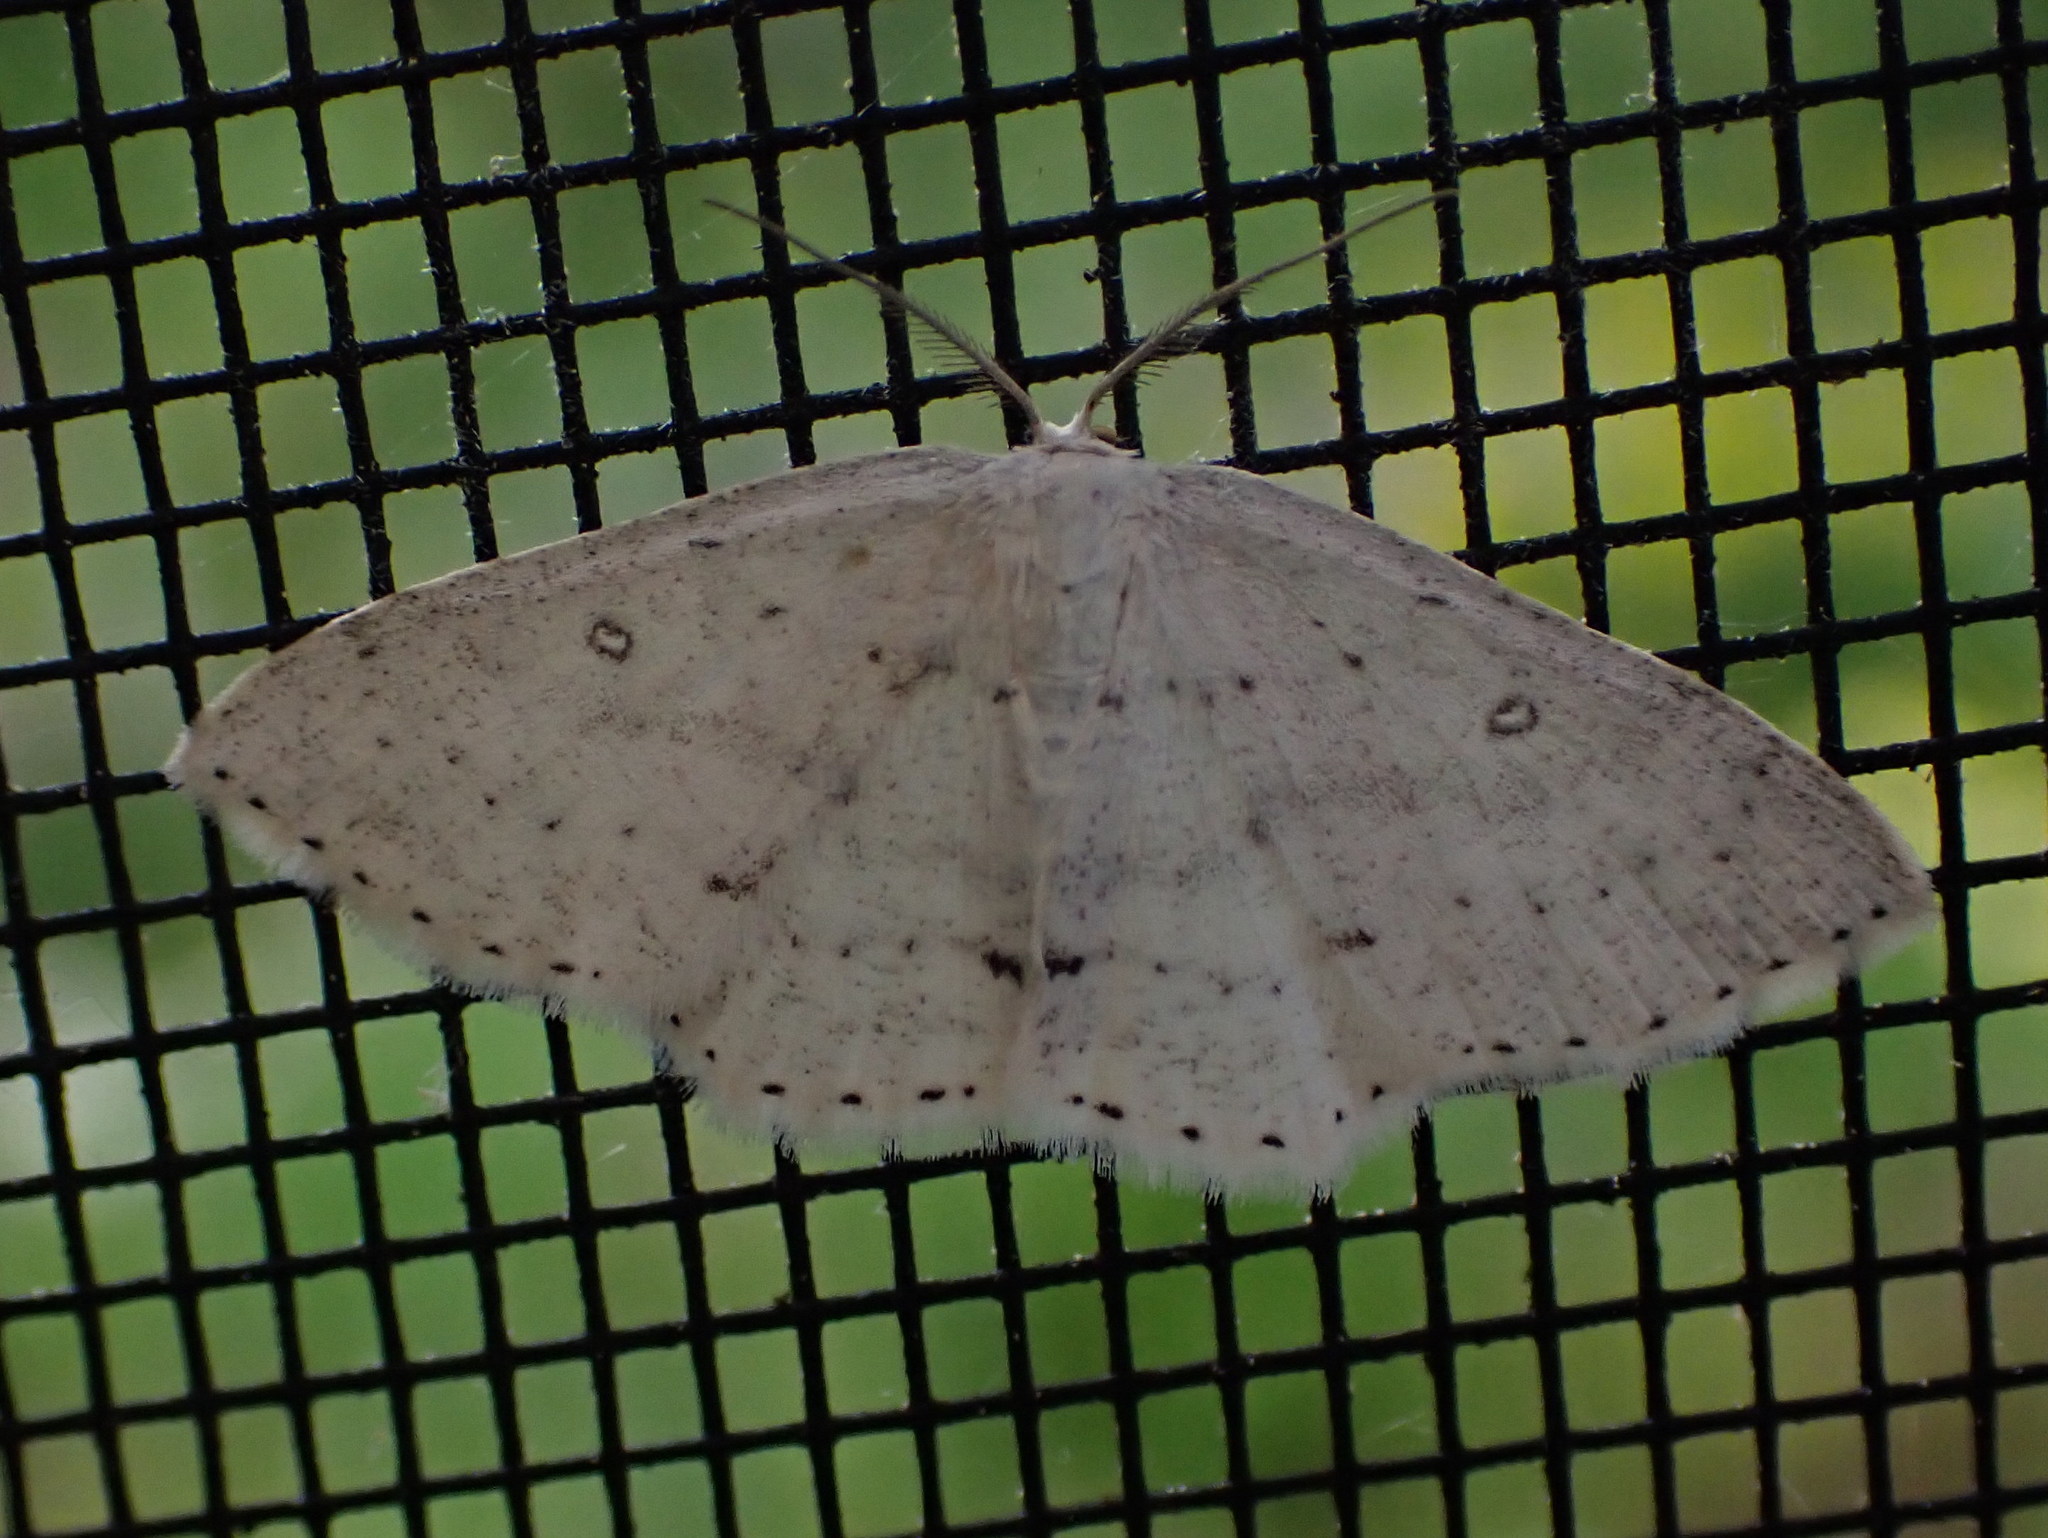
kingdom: Animalia
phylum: Arthropoda
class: Insecta
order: Lepidoptera
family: Geometridae
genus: Cyclophora
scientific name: Cyclophora pendulinaria
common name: Sweet fern geometer
